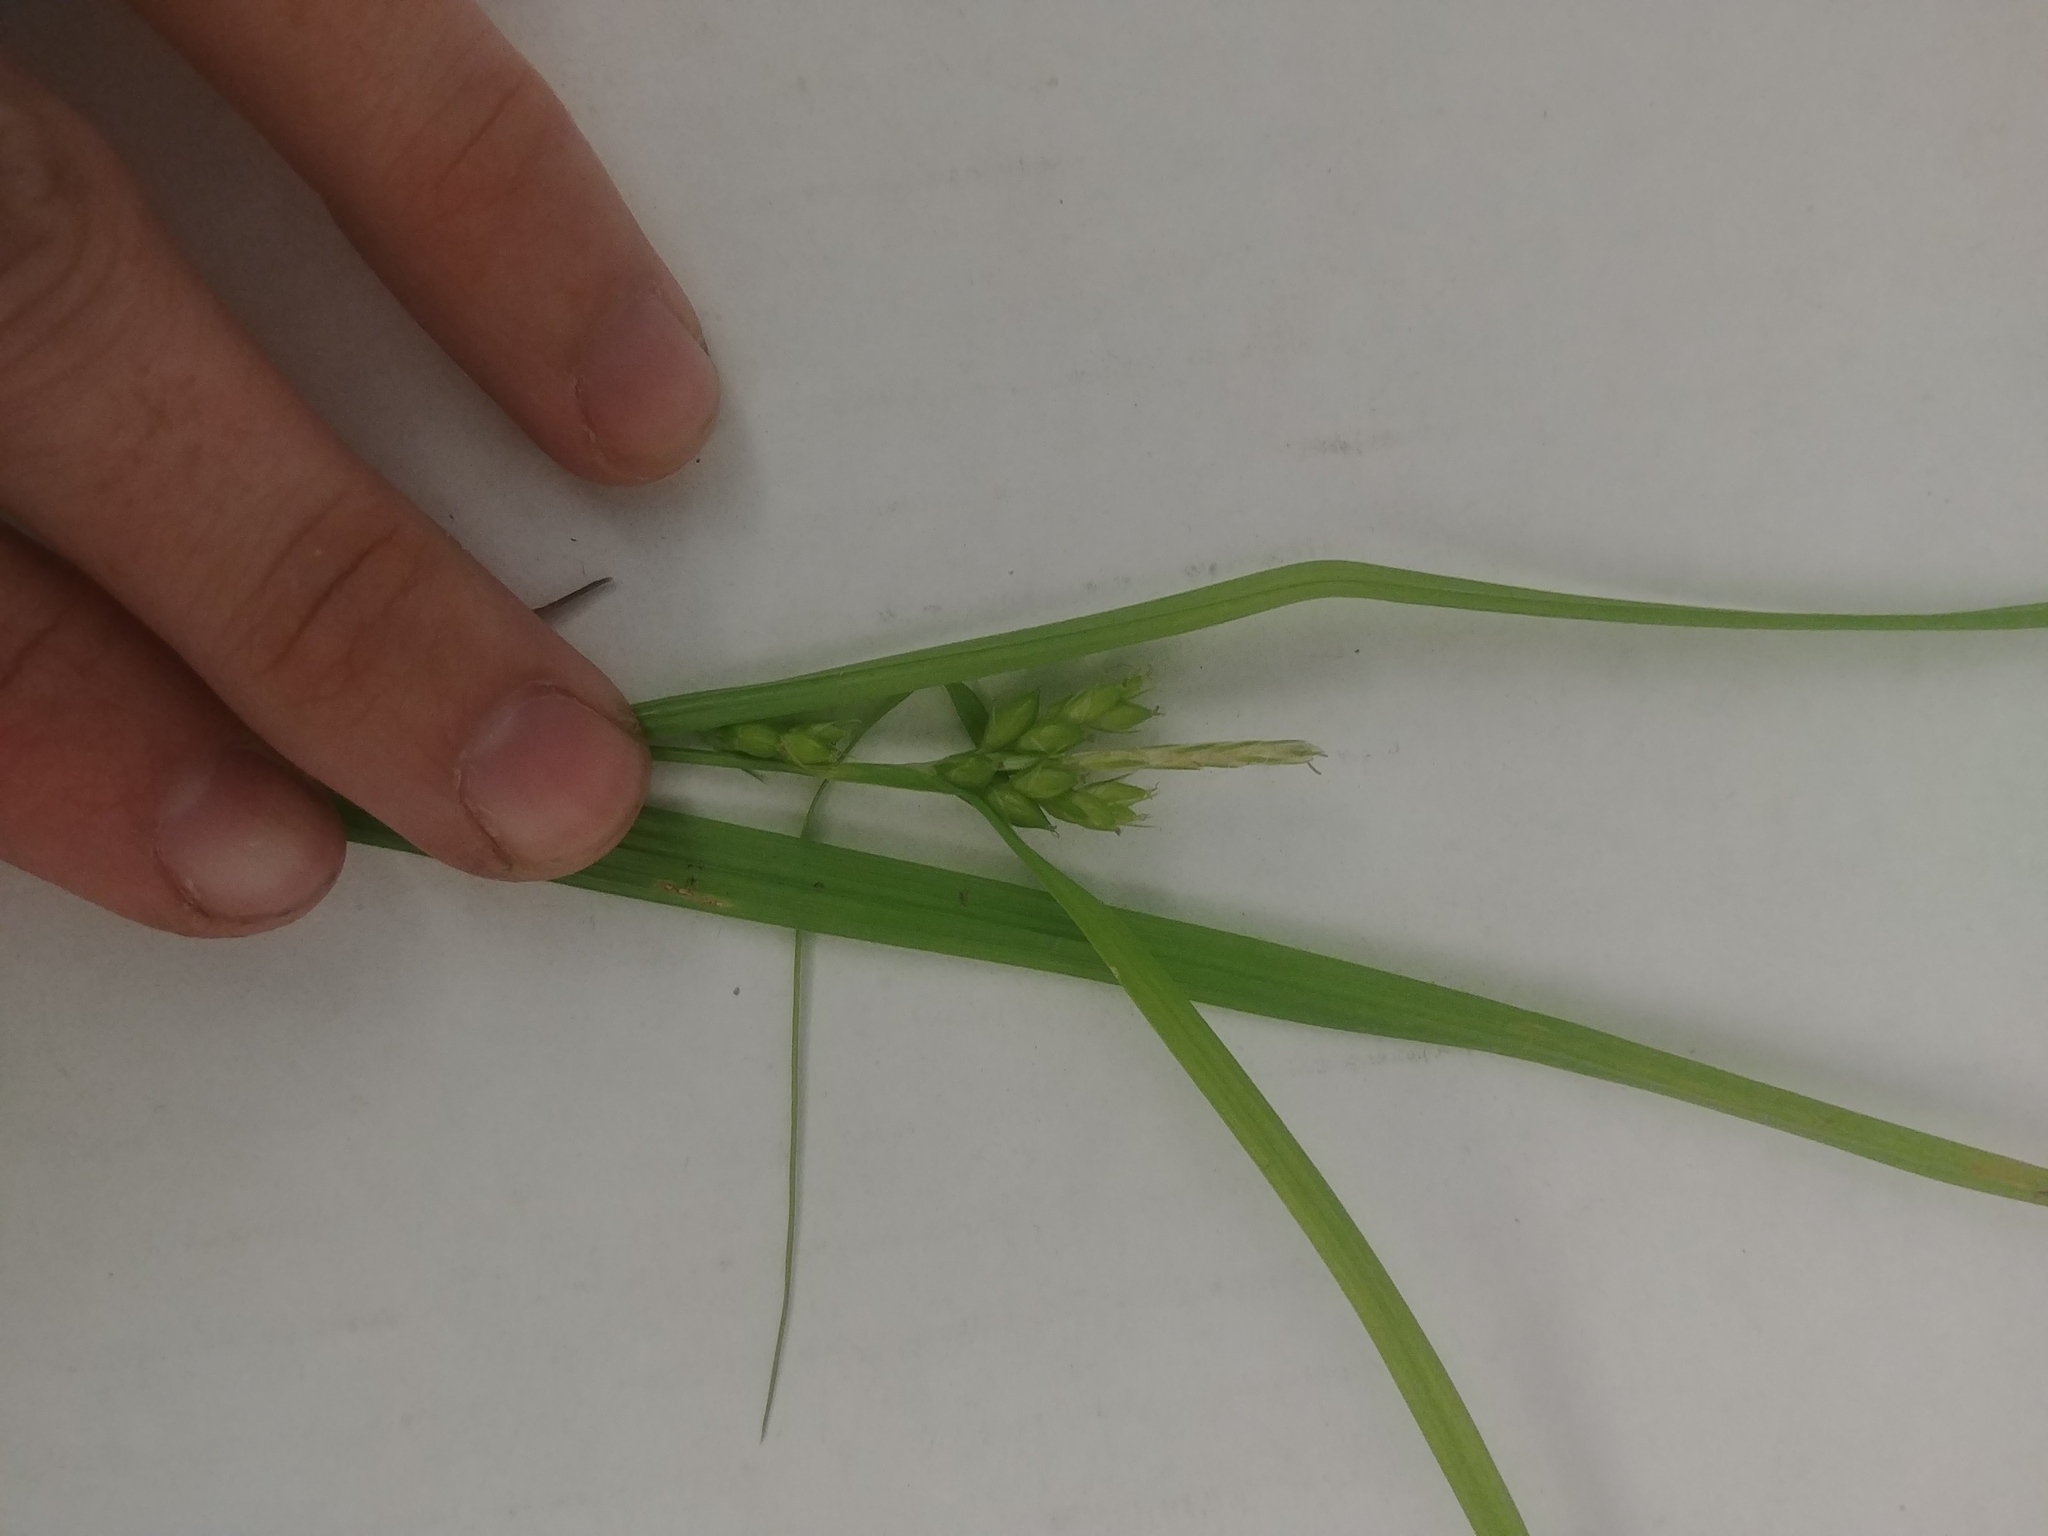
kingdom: Plantae
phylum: Tracheophyta
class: Liliopsida
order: Poales
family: Cyperaceae
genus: Carex
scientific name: Carex grisea
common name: Eastern narrow-leaved sedge
